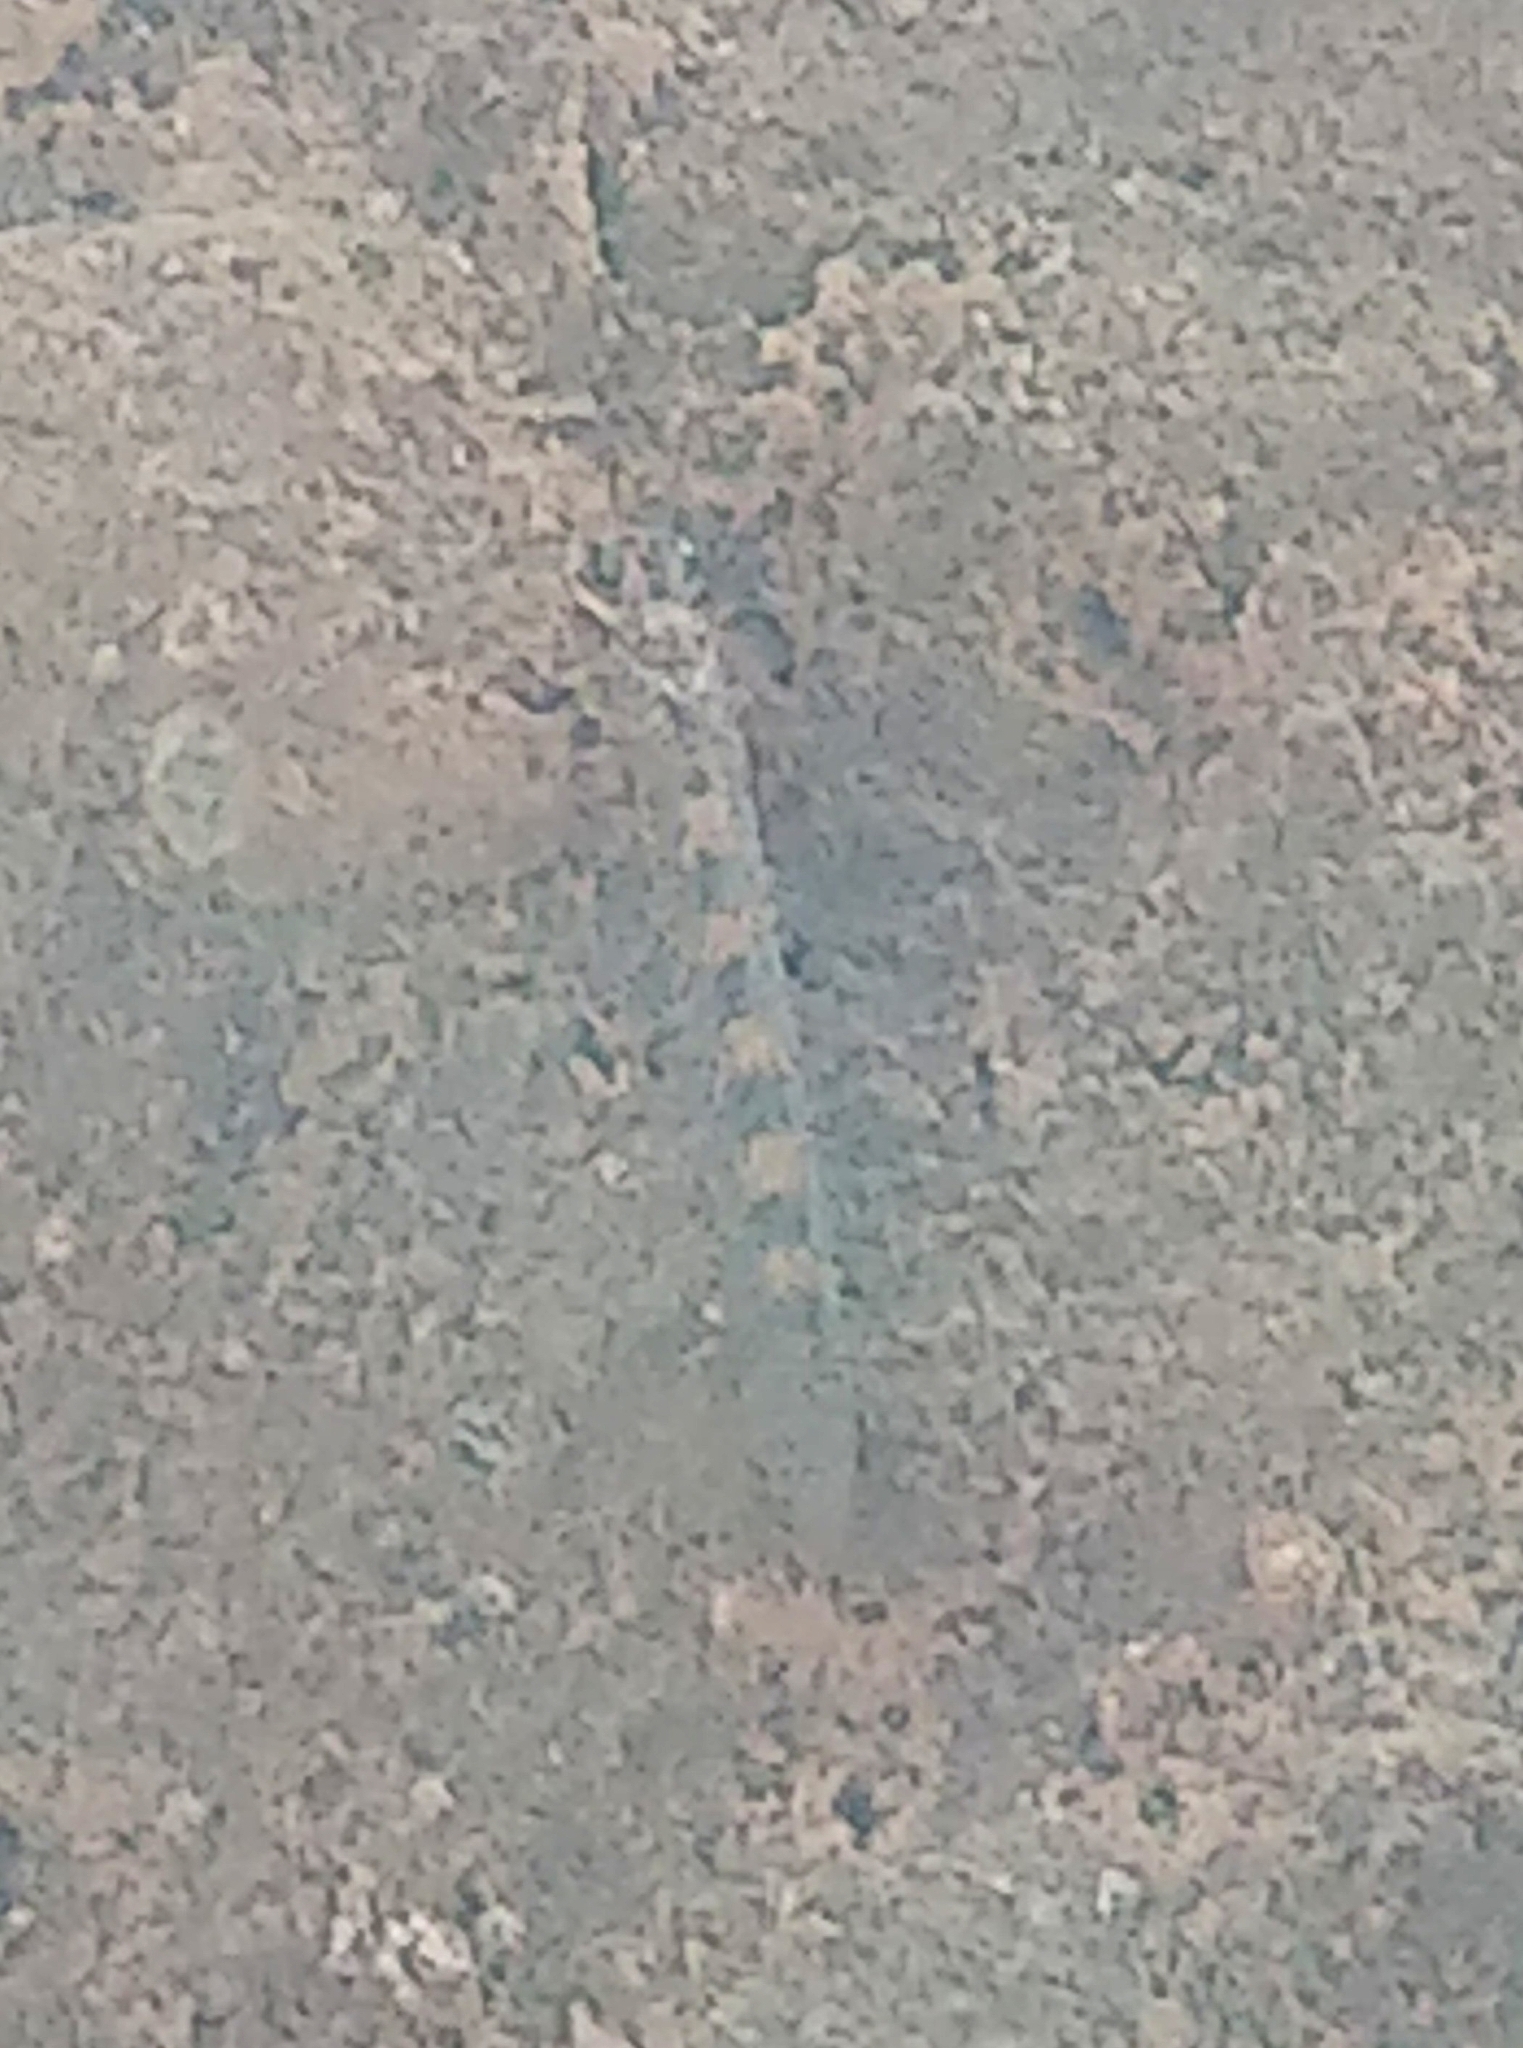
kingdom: Animalia
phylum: Arthropoda
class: Insecta
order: Neuroptera
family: Myrmeleontidae
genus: Myrmeleon
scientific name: Myrmeleon alternans
